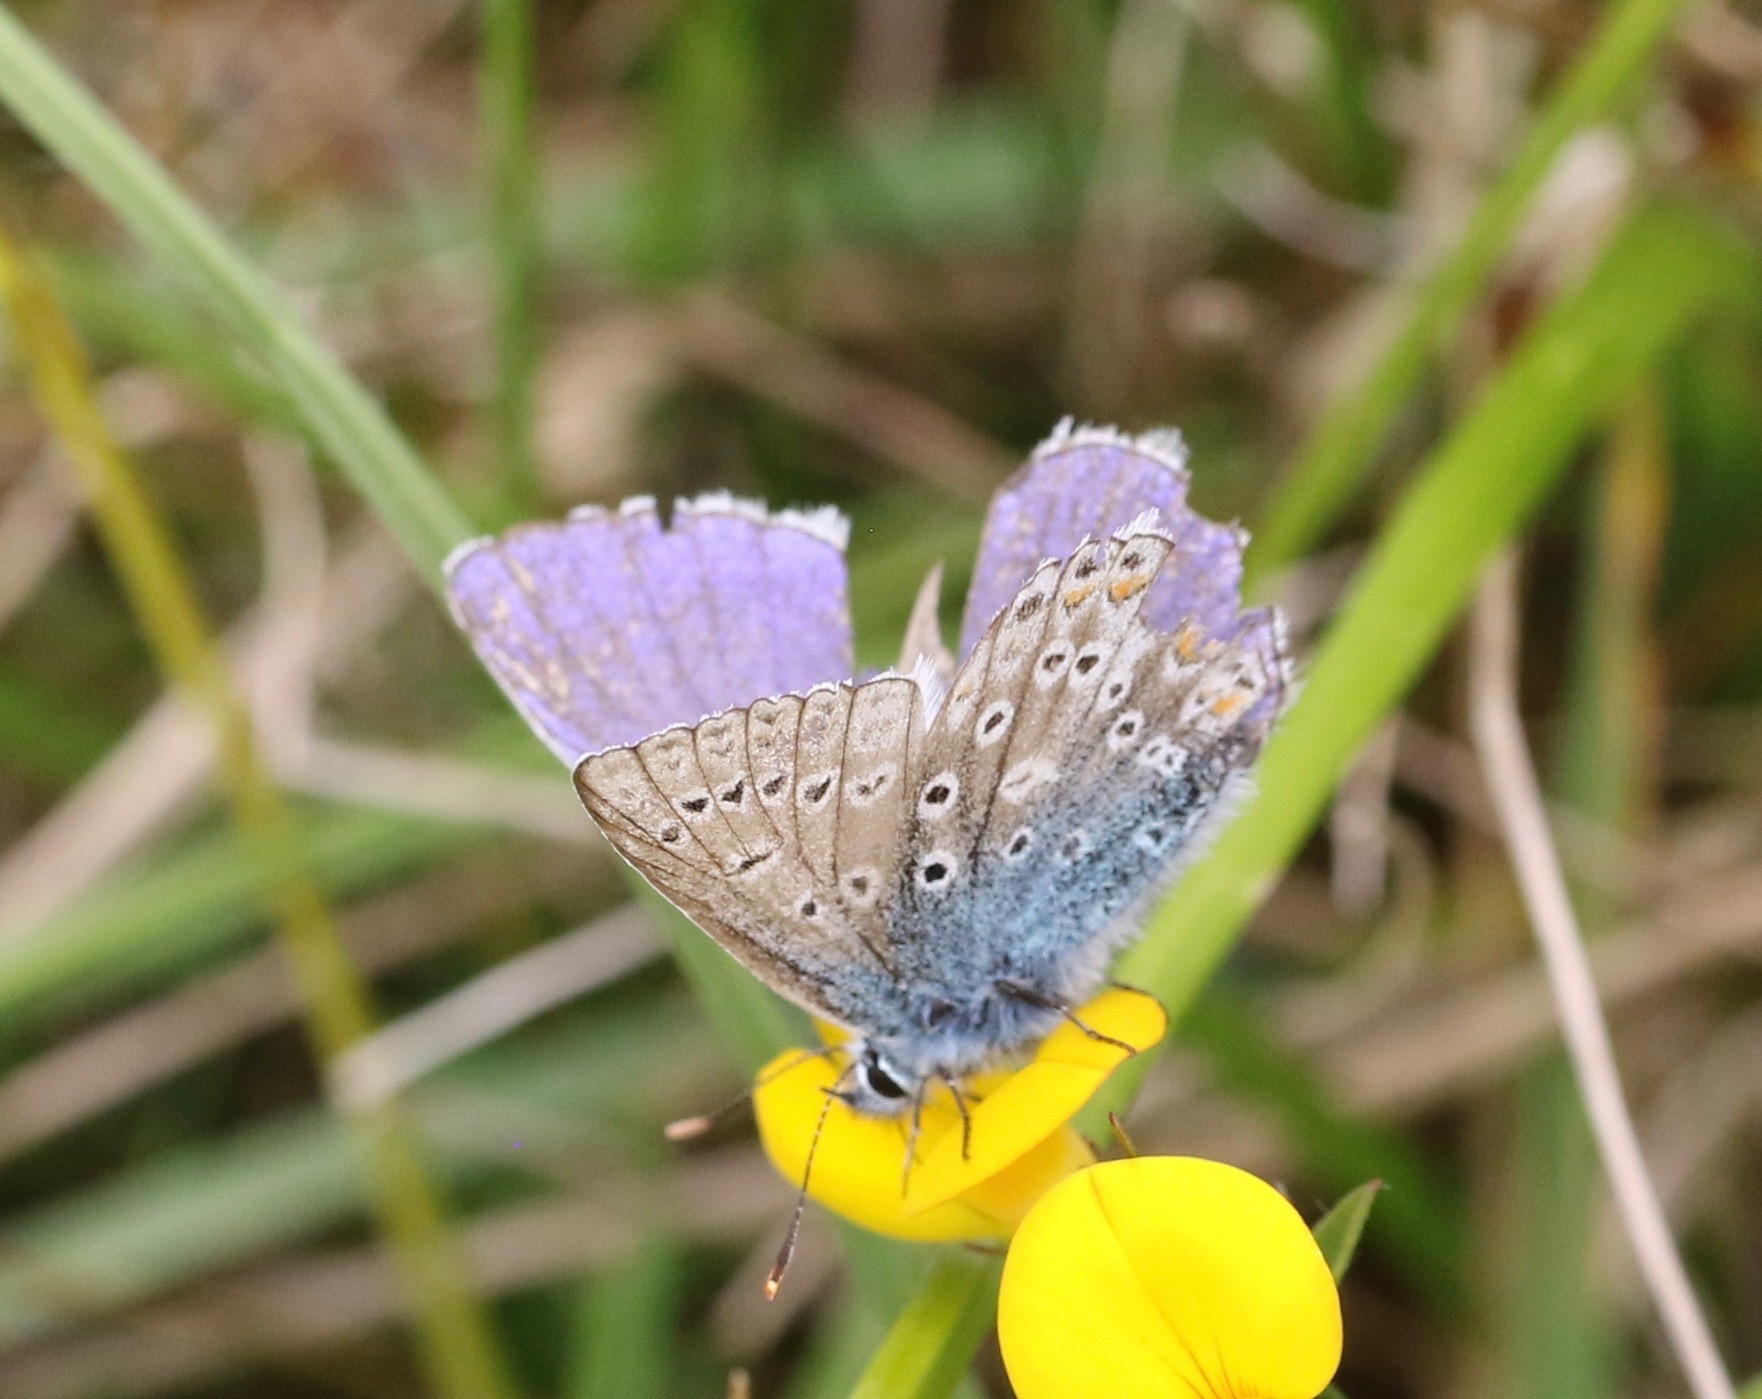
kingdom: Animalia
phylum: Arthropoda
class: Insecta
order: Lepidoptera
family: Lycaenidae
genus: Polyommatus
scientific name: Polyommatus icarus
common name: Common blue
